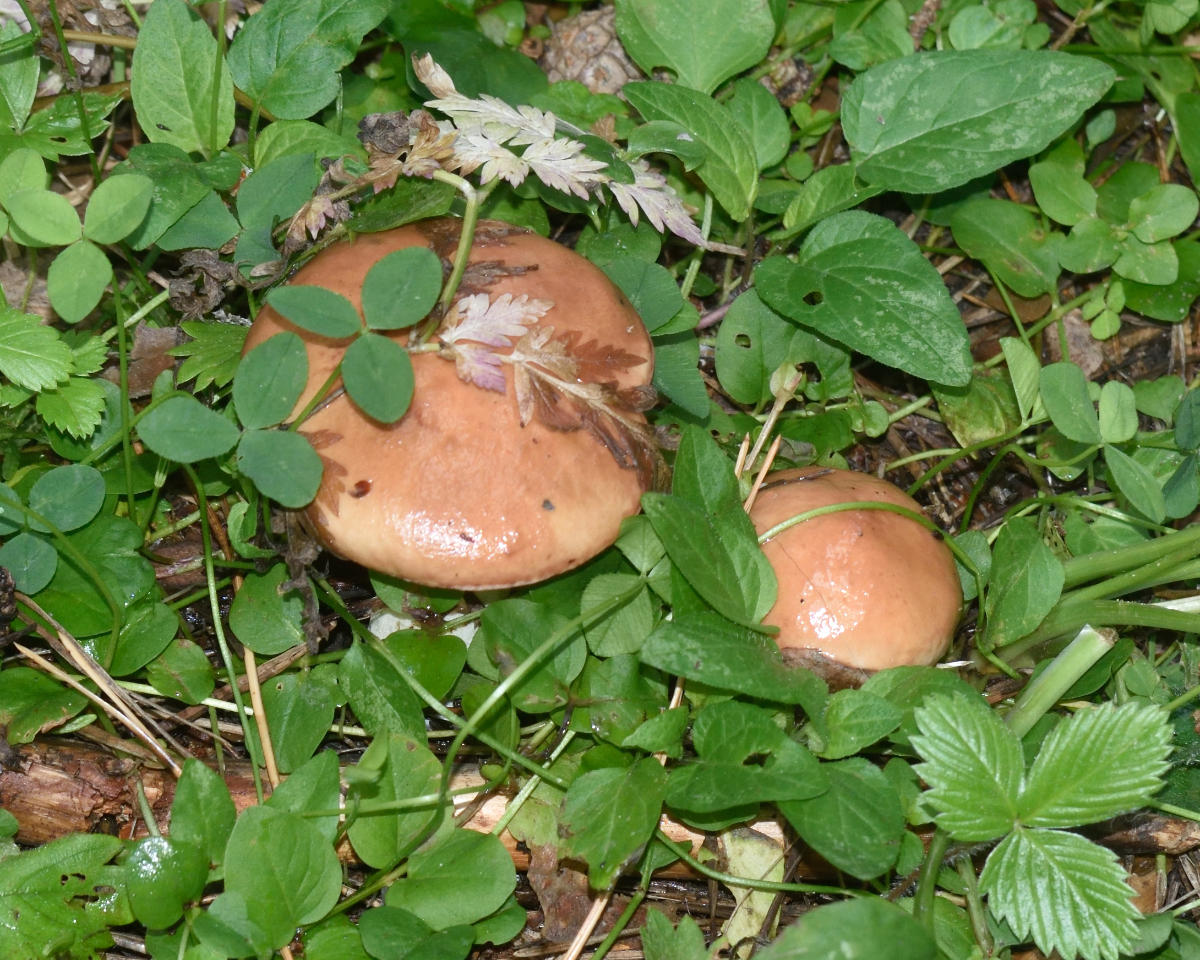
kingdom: Fungi
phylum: Basidiomycota
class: Agaricomycetes
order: Boletales
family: Suillaceae
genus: Suillus
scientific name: Suillus granulatus
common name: Weeping bolete
